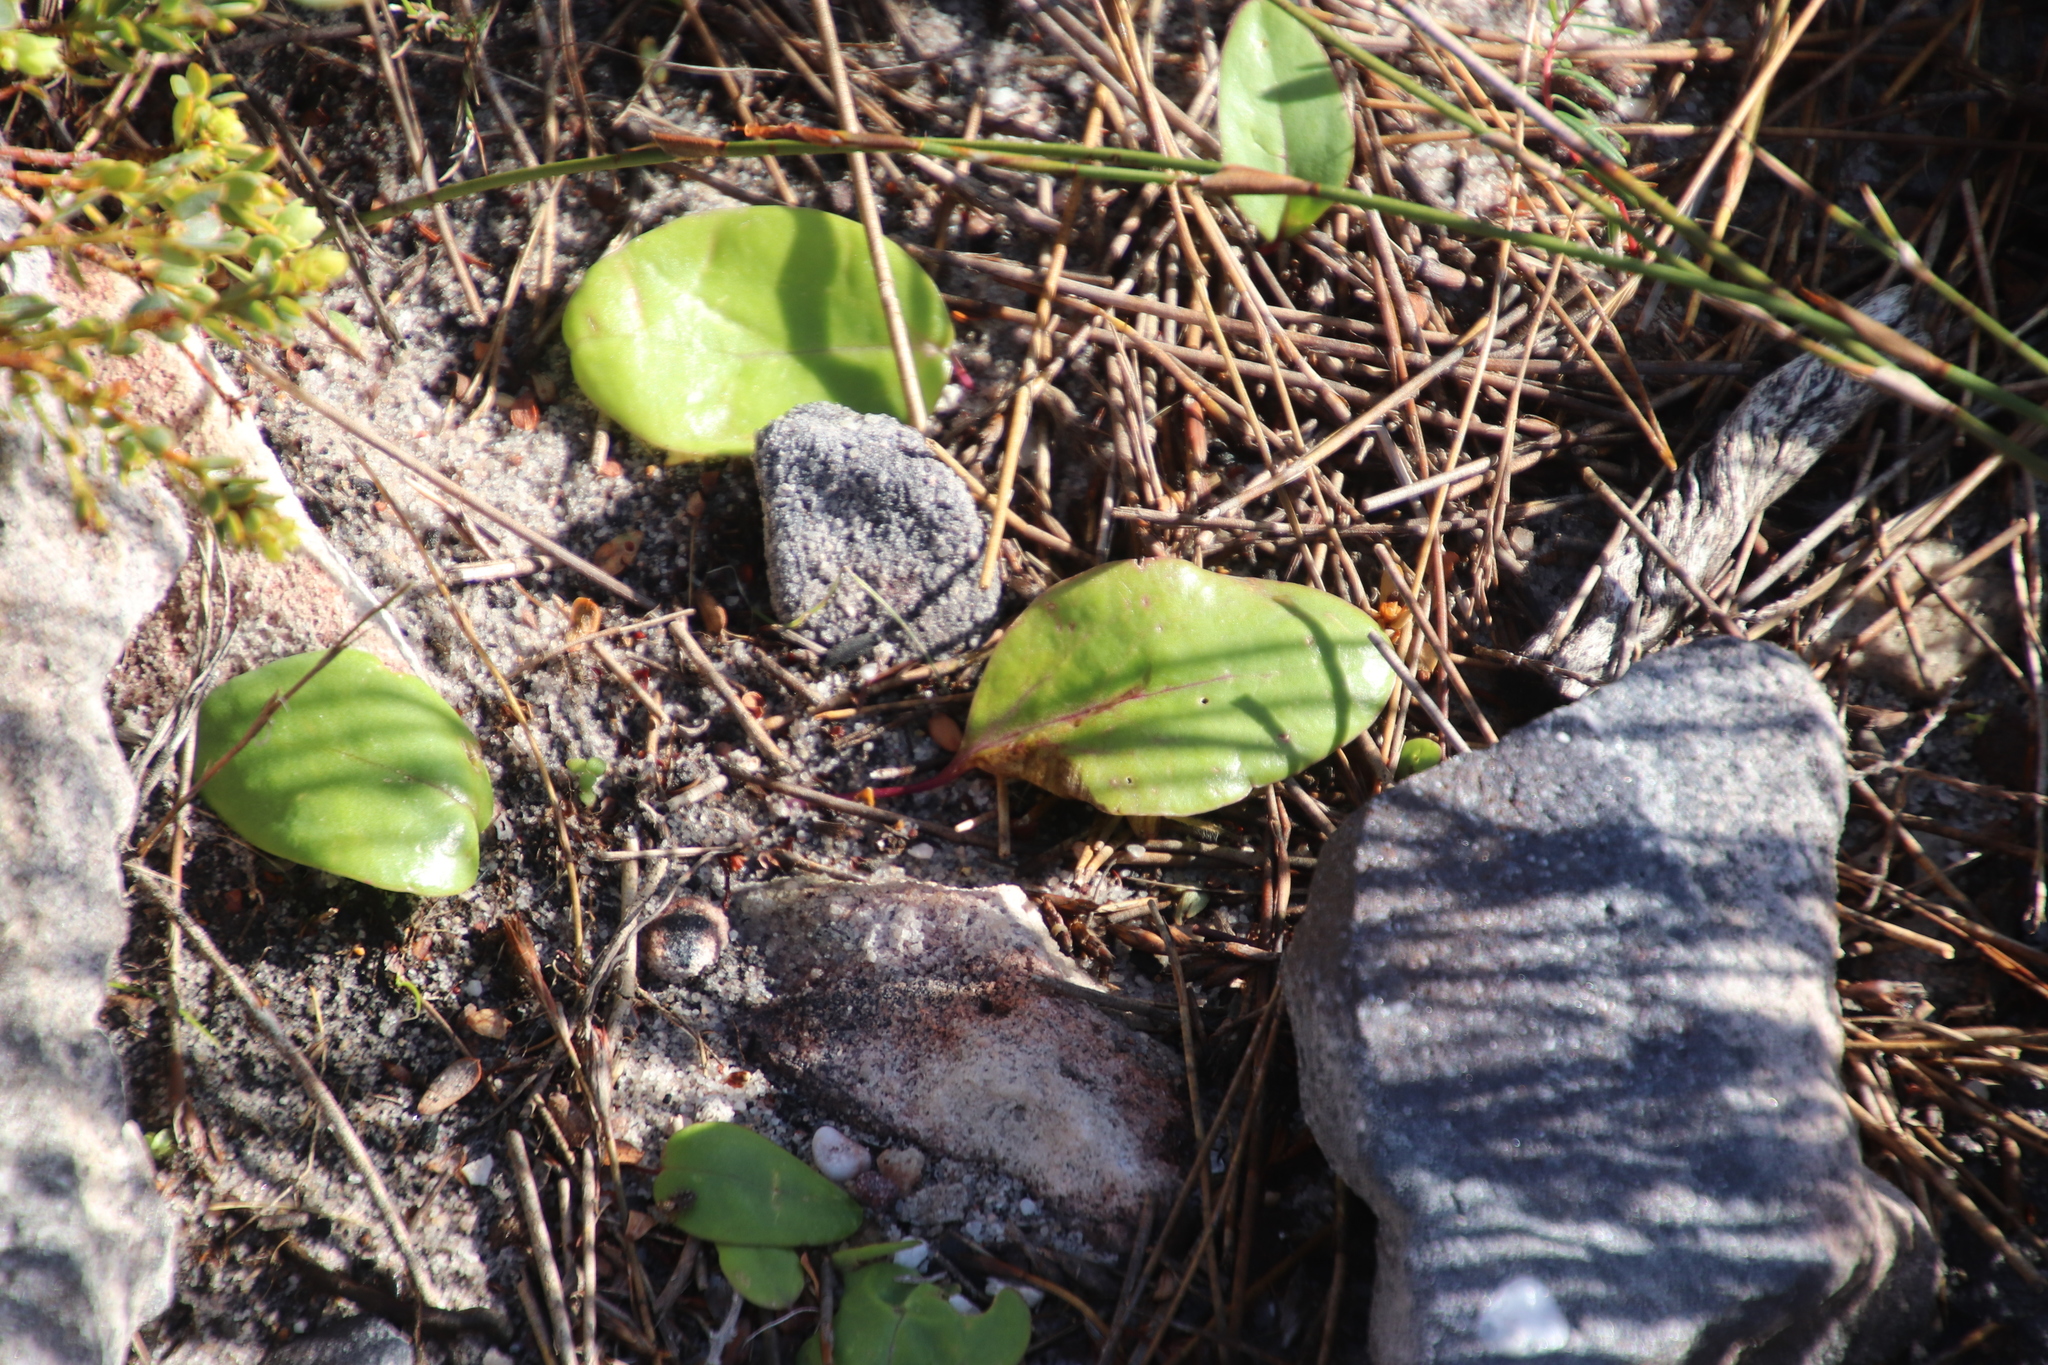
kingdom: Plantae
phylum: Tracheophyta
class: Magnoliopsida
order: Asterales
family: Asteraceae
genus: Othonna
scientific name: Othonna bulbosa
